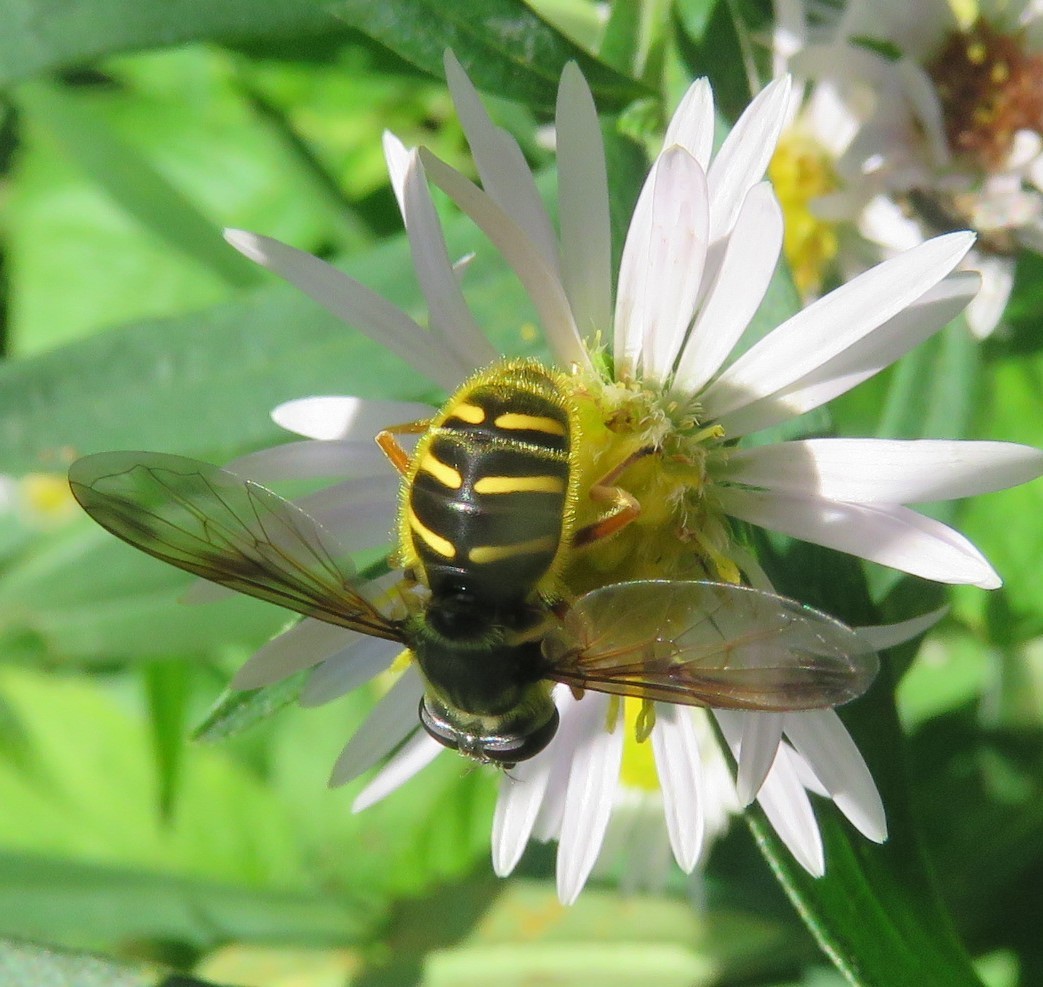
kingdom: Animalia
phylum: Arthropoda
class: Insecta
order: Diptera
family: Syrphidae
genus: Sericomyia
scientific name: Sericomyia chrysotoxoides
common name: Oblique-banded pond fly
